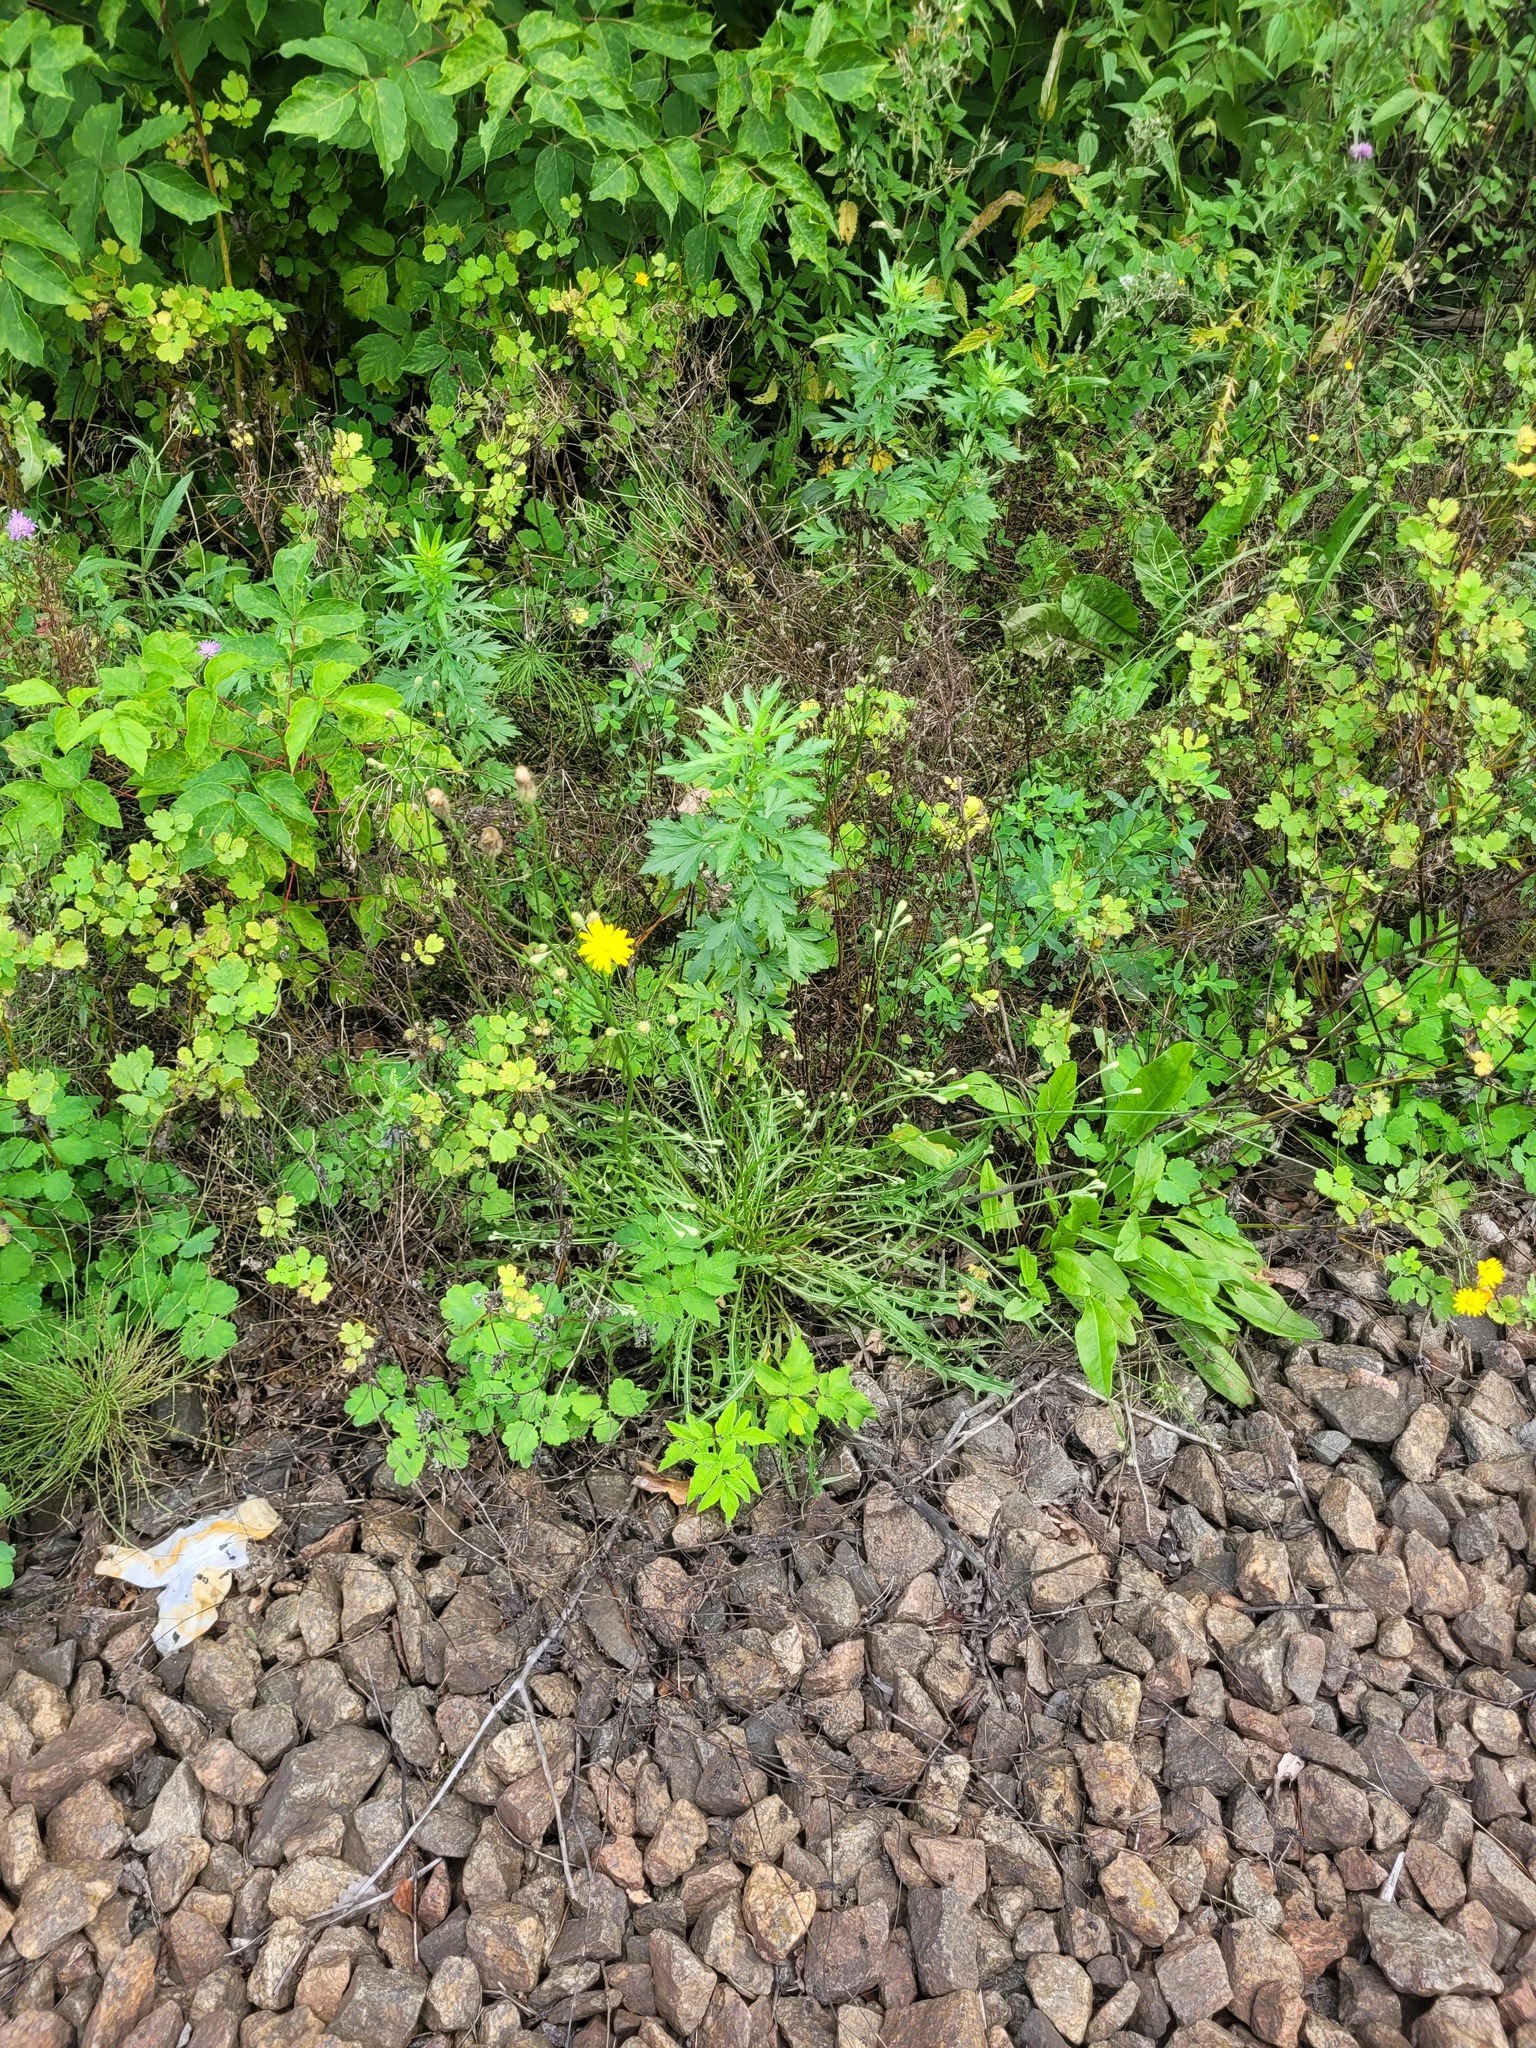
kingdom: Plantae
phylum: Tracheophyta
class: Magnoliopsida
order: Asterales
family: Asteraceae
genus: Scorzoneroides
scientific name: Scorzoneroides autumnalis
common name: Autumn hawkbit
